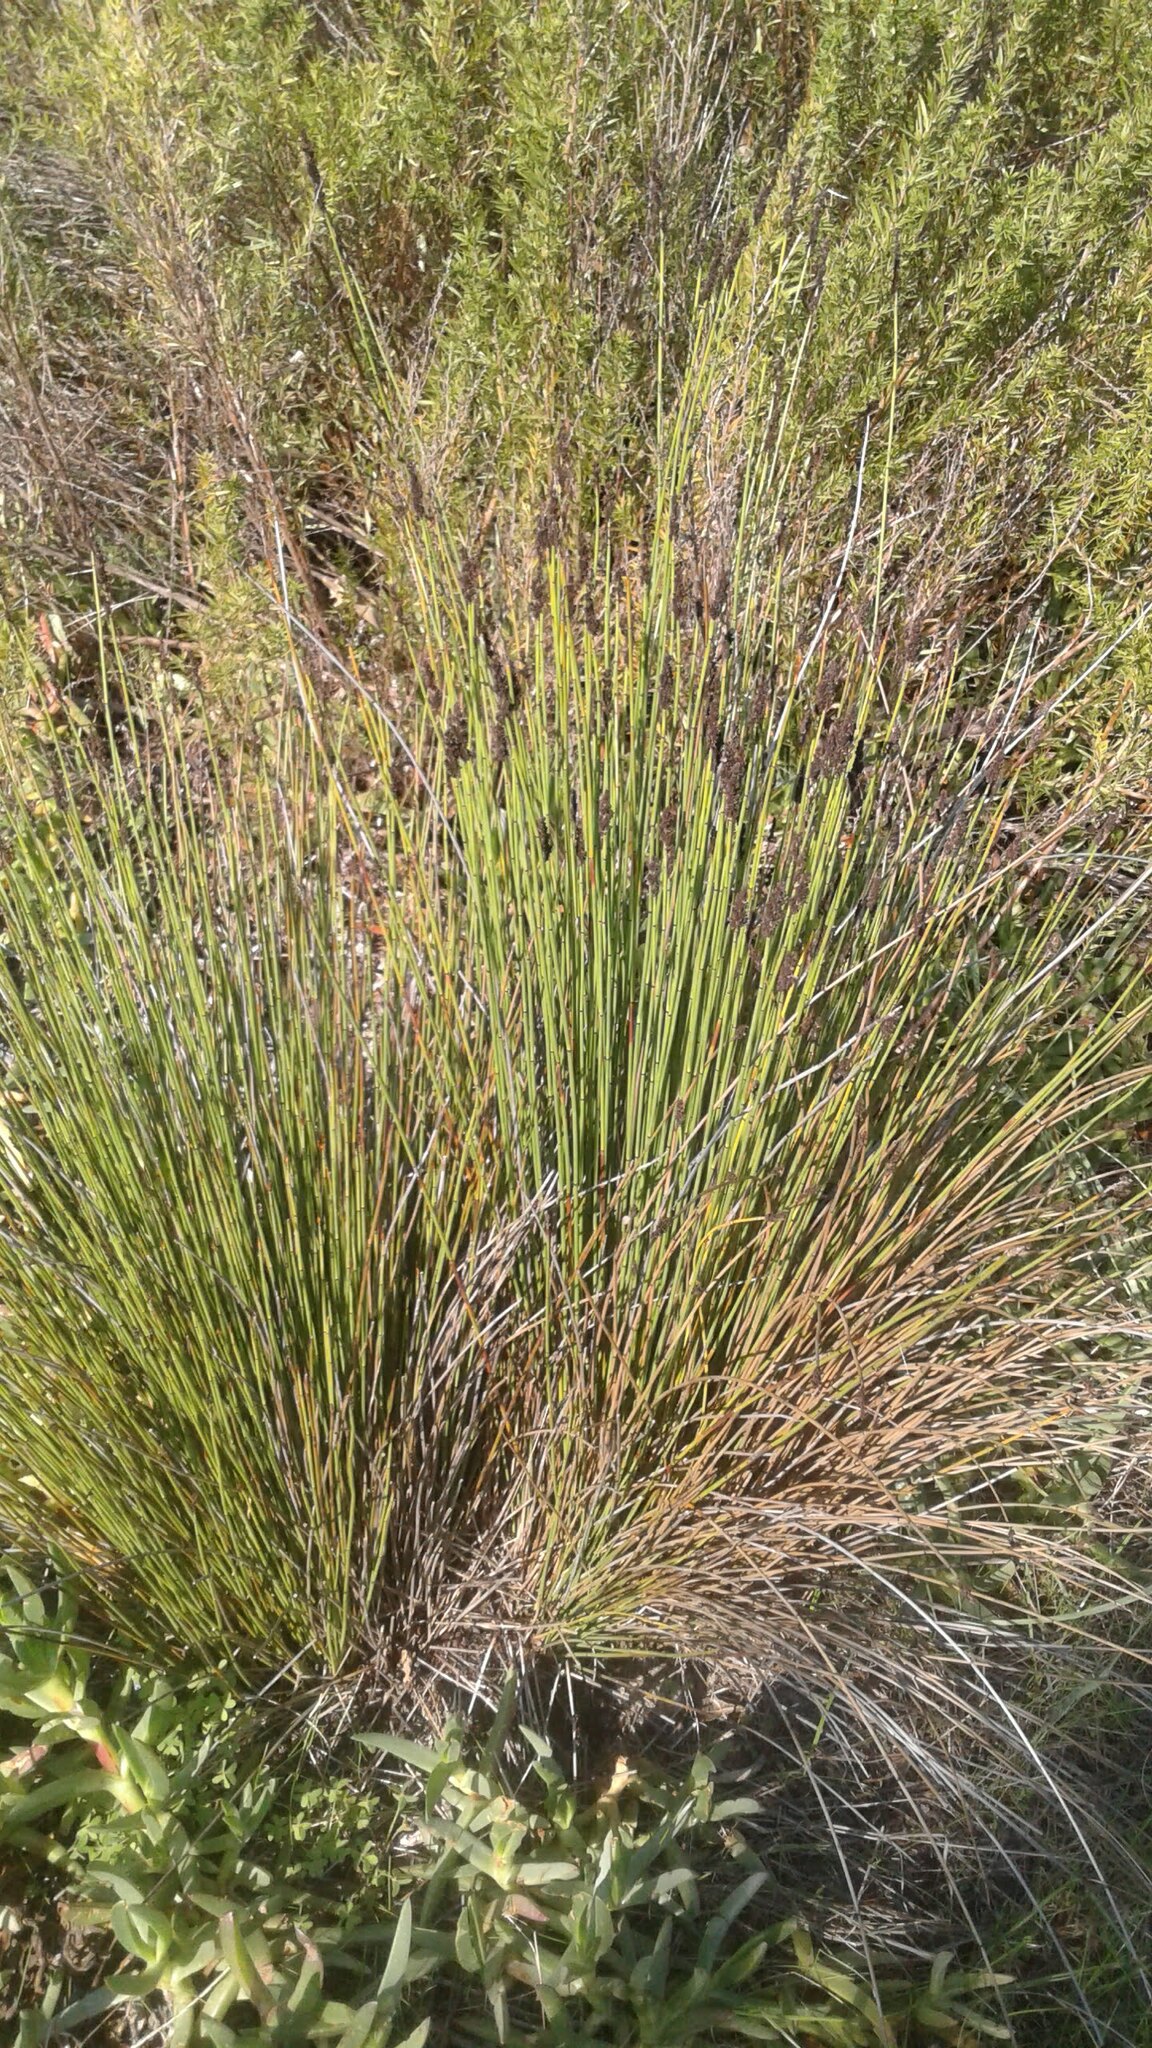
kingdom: Plantae
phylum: Tracheophyta
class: Liliopsida
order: Poales
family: Restionaceae
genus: Elegia
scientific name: Elegia tectorum
